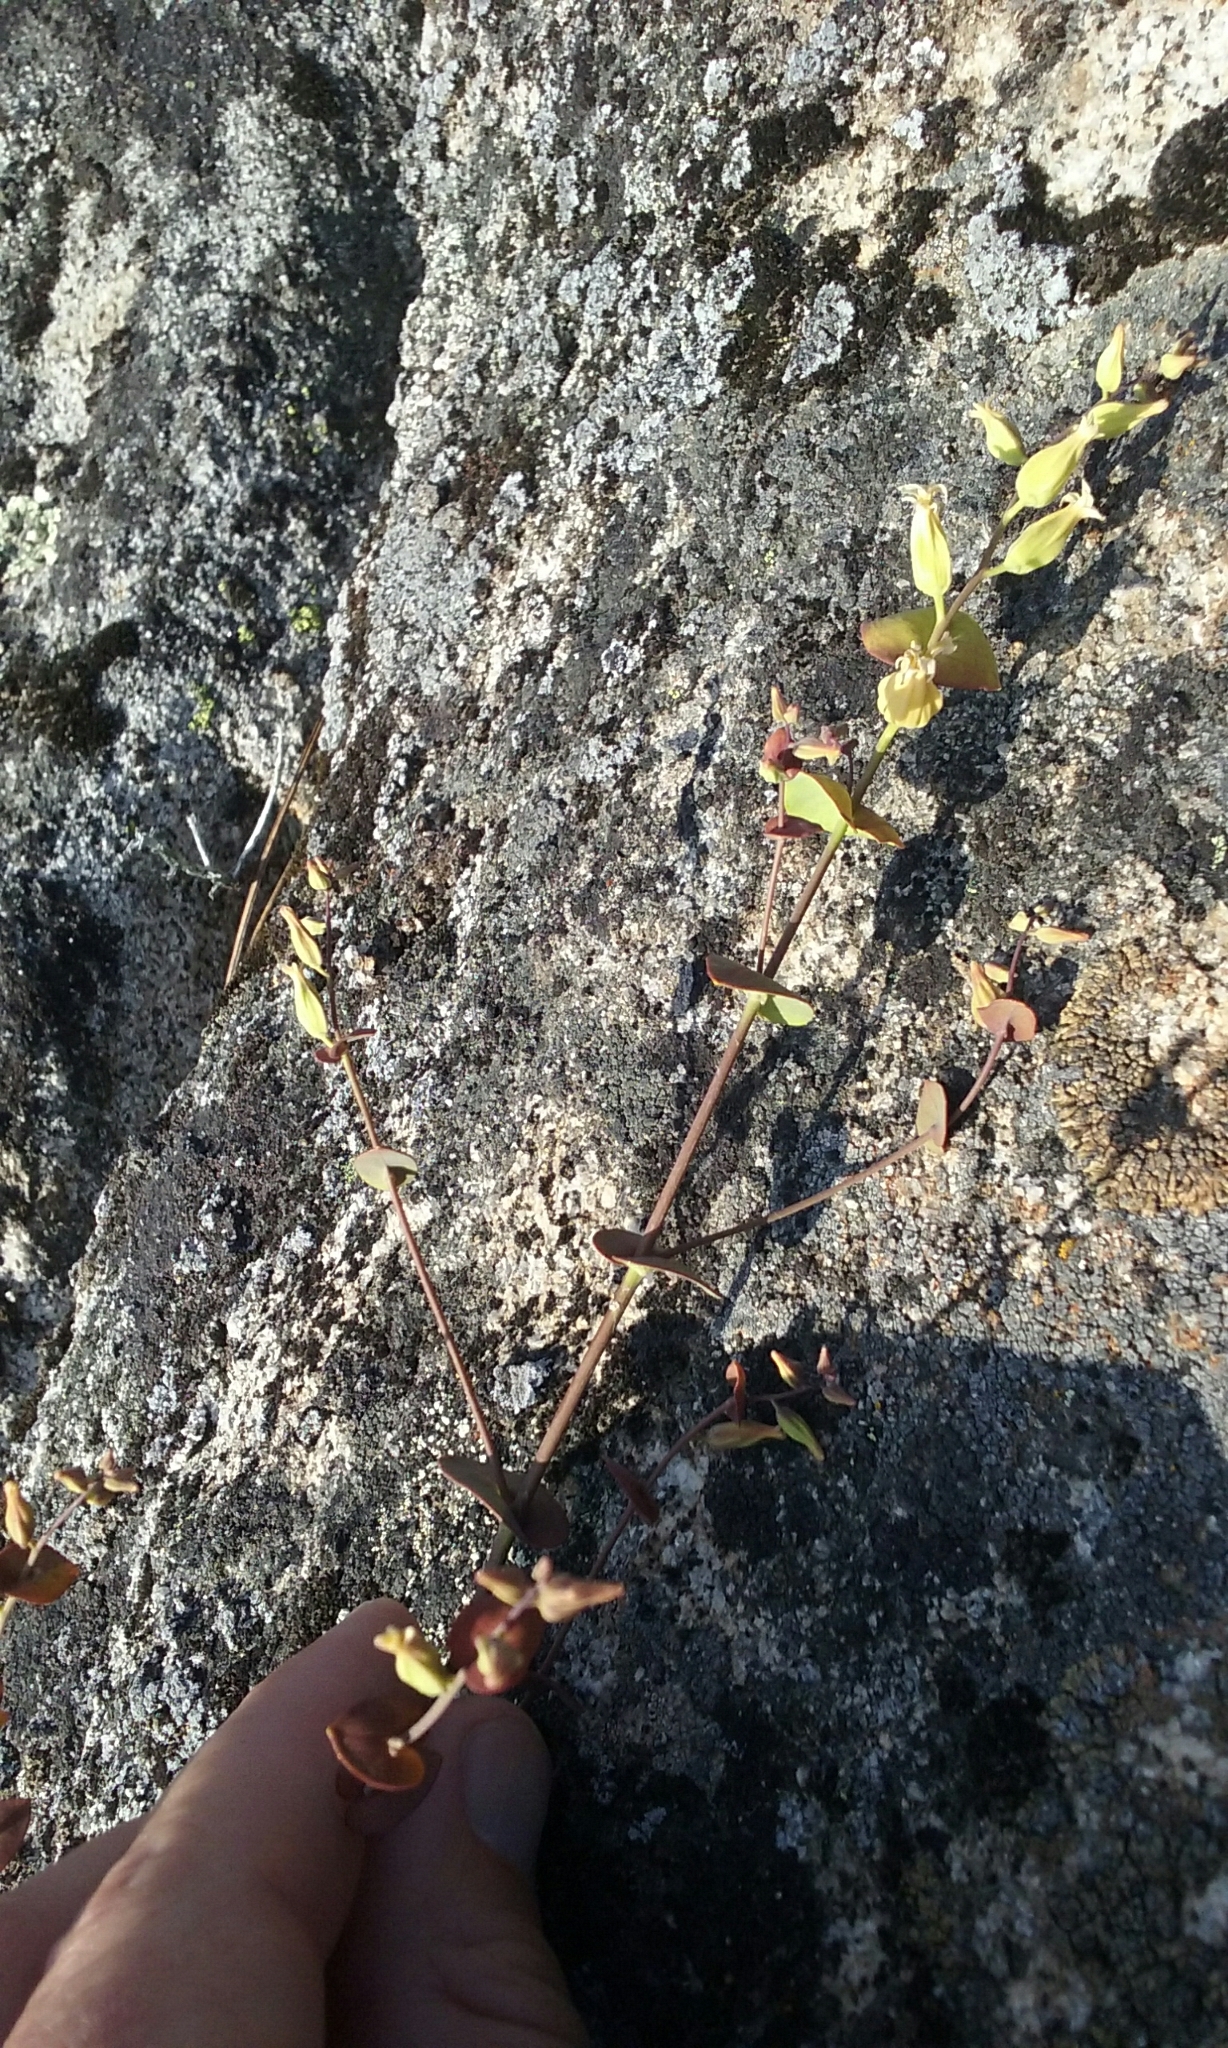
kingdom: Plantae
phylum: Tracheophyta
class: Magnoliopsida
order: Brassicales
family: Brassicaceae
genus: Streptanthus
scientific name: Streptanthus tortuosus
